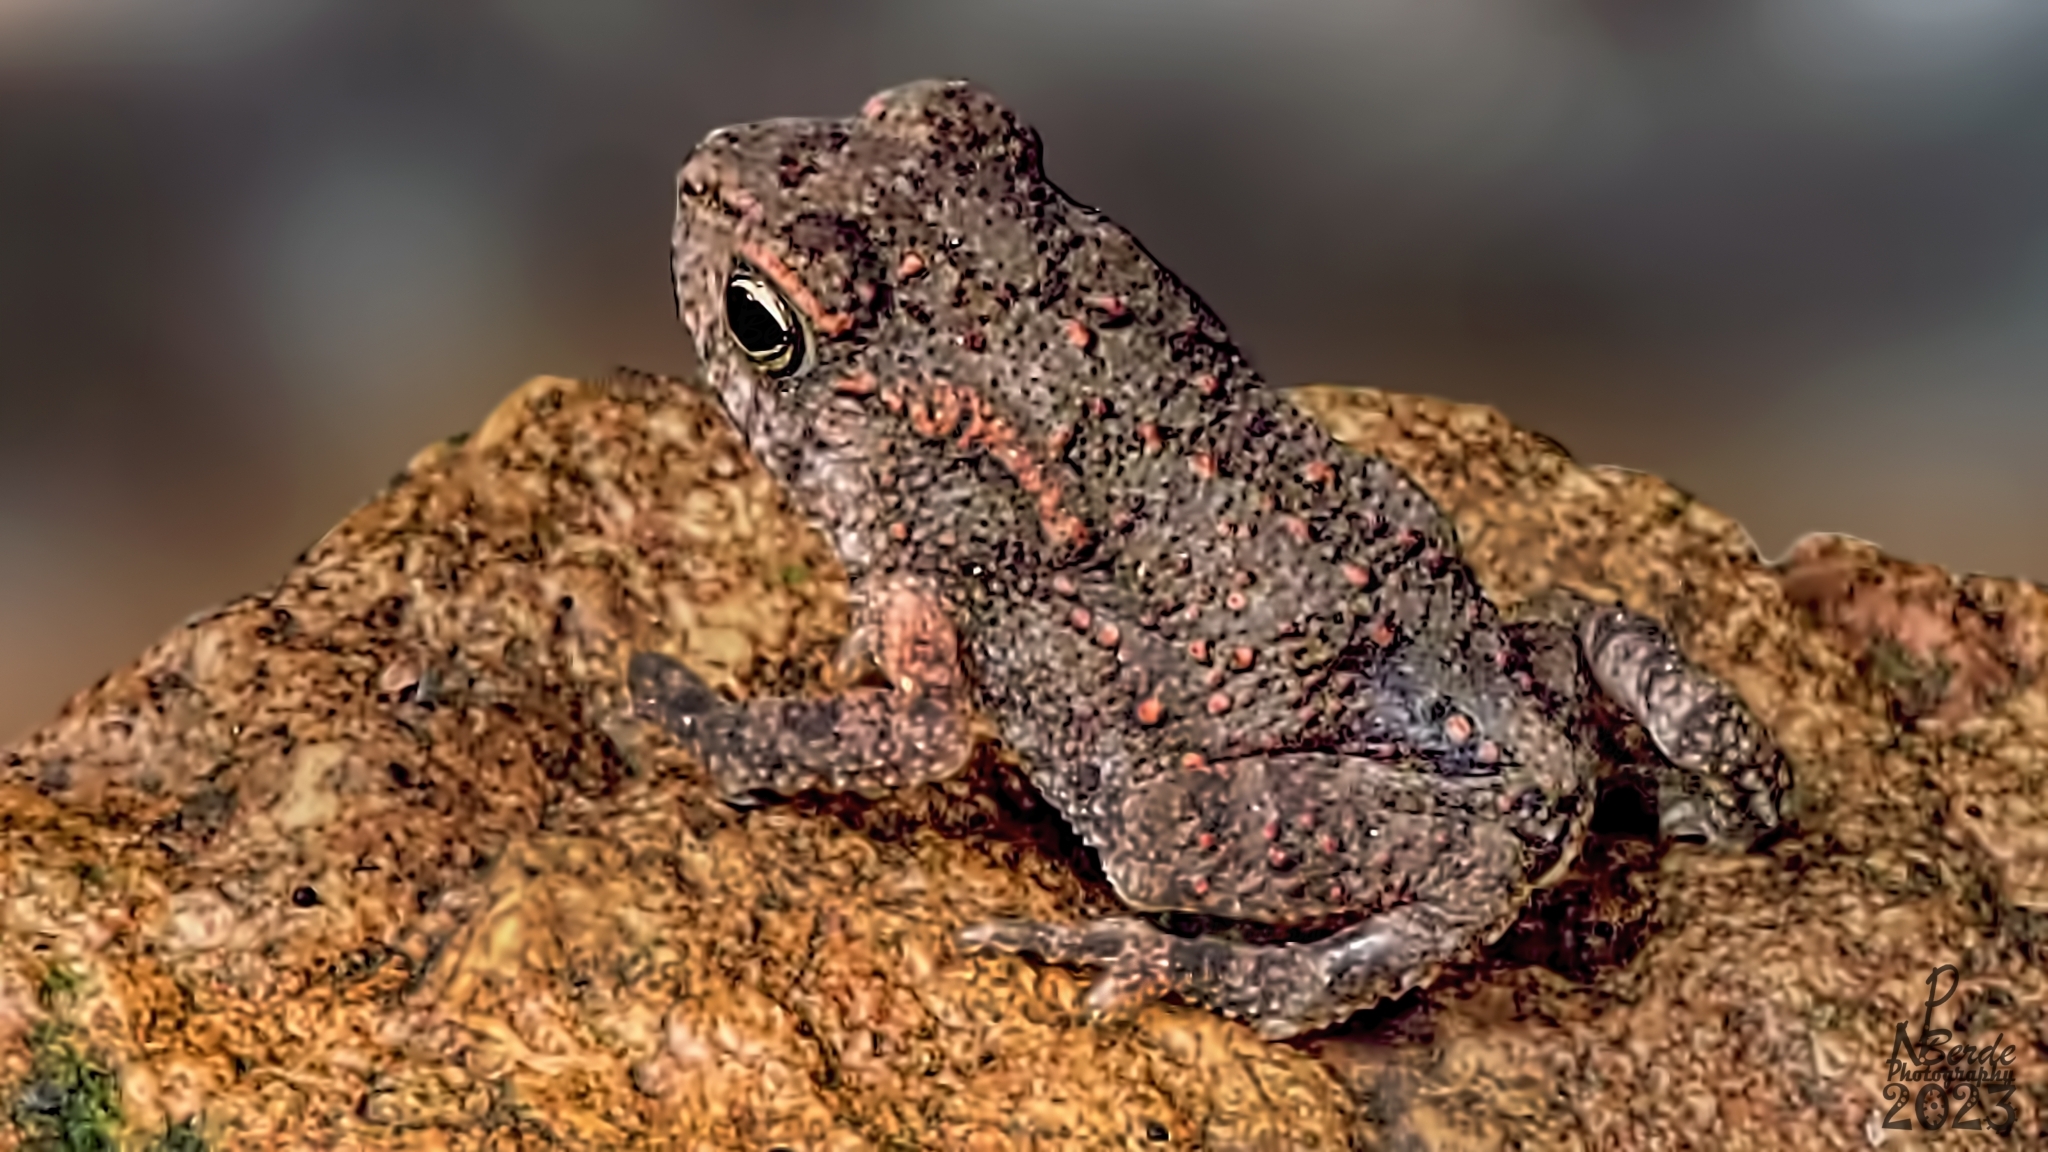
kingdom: Animalia
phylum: Chordata
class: Amphibia
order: Anura
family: Bufonidae
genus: Duttaphrynus
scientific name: Duttaphrynus melanostictus
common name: Common sunda toad
